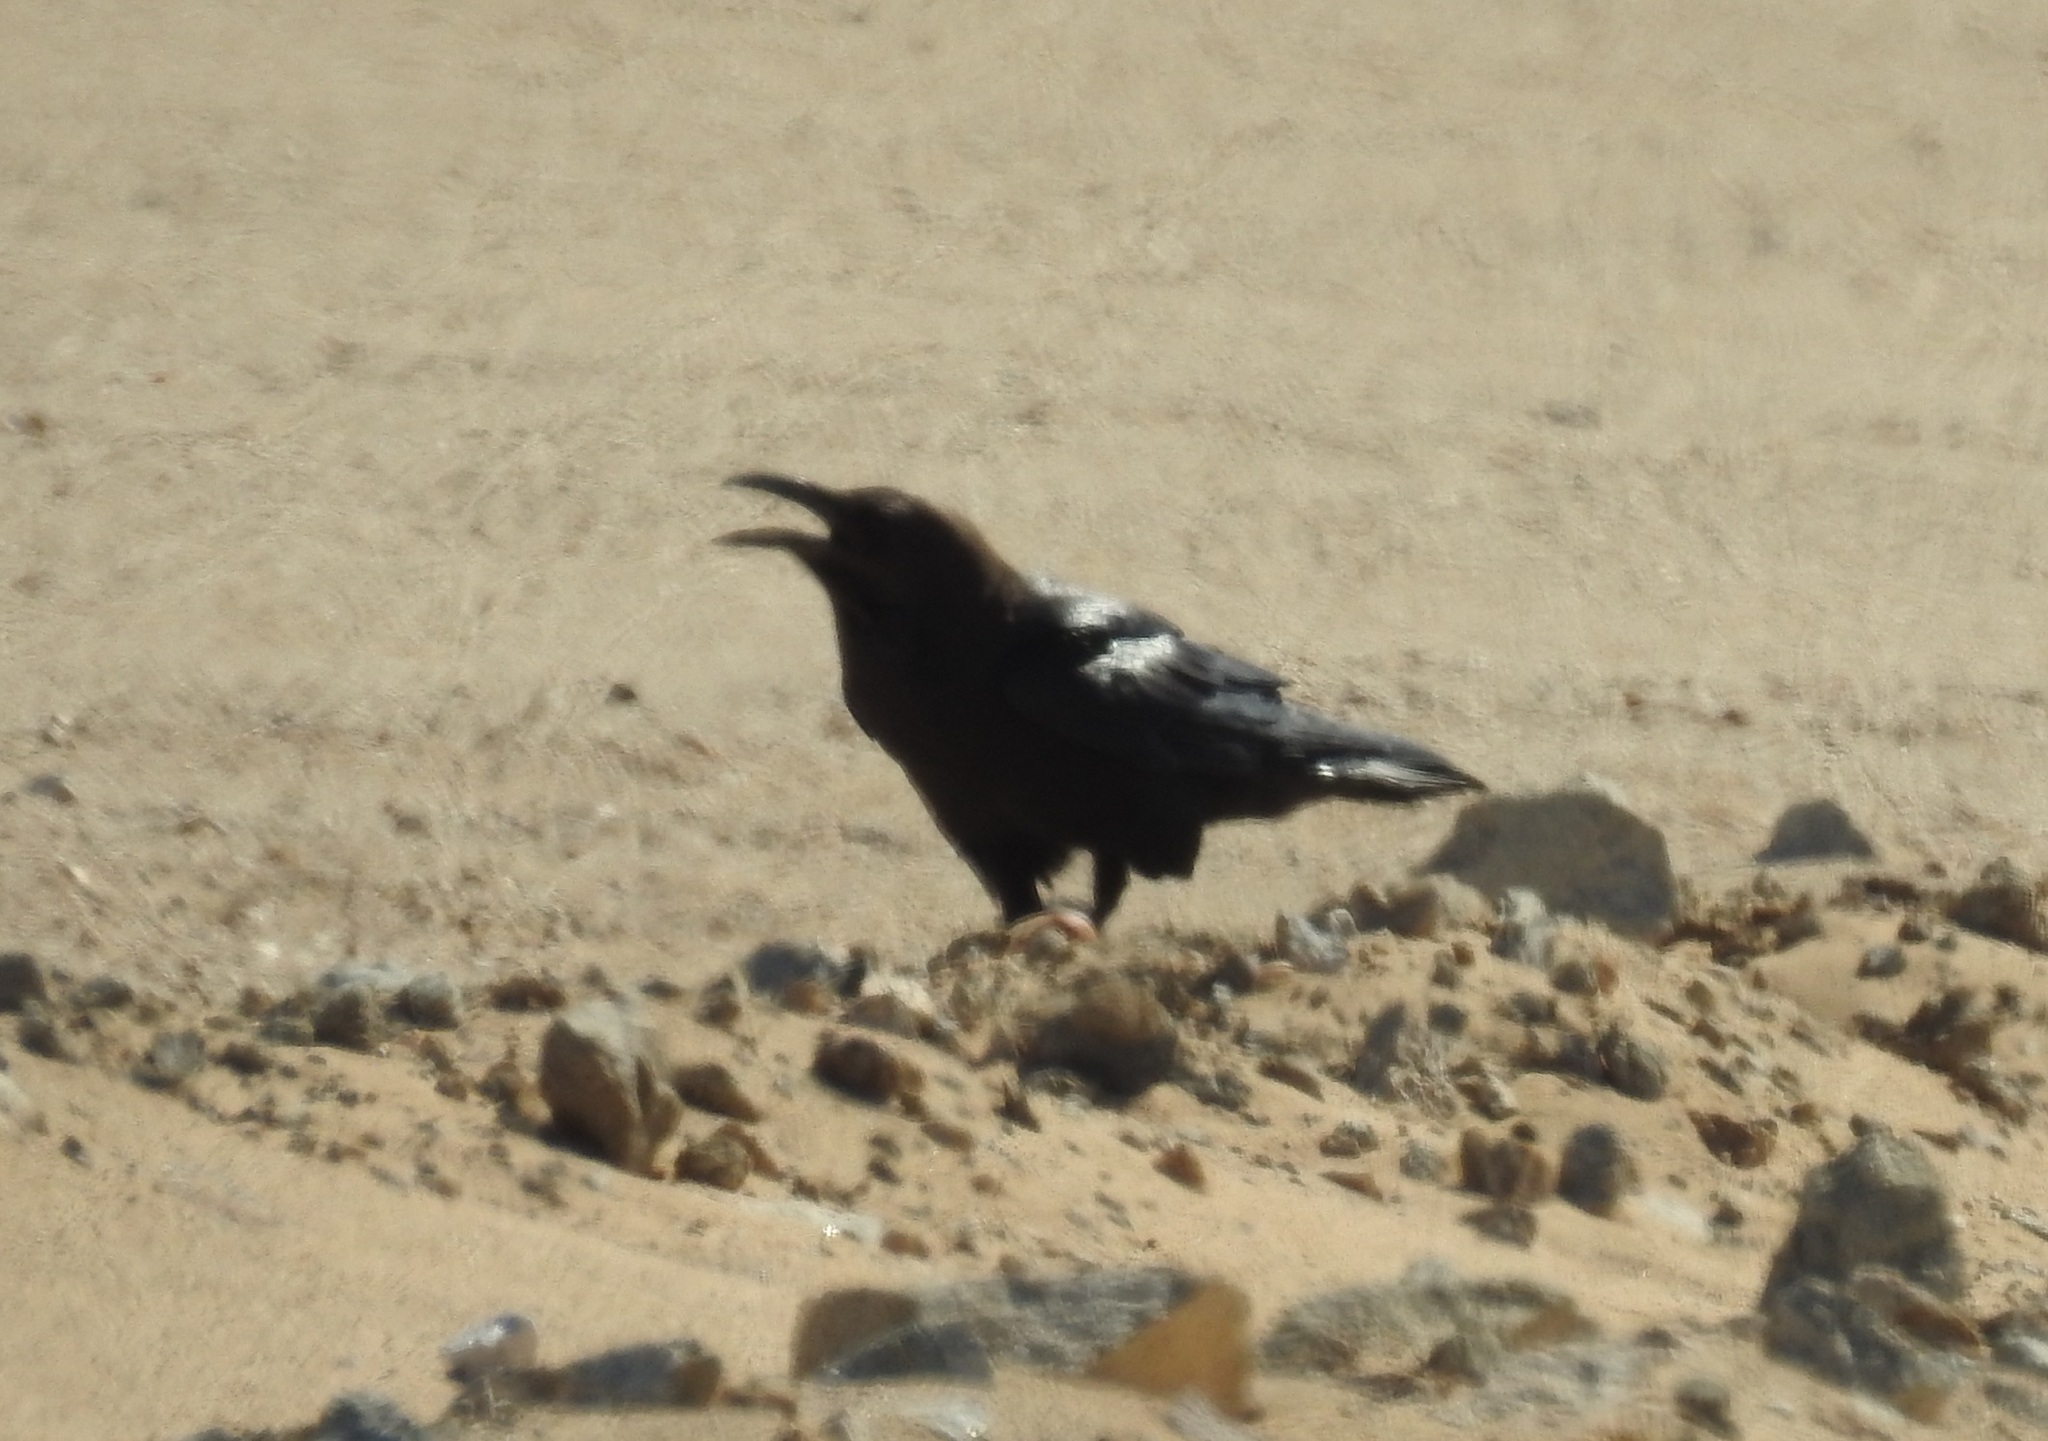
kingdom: Animalia
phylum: Chordata
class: Aves
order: Passeriformes
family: Corvidae
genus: Corvus
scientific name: Corvus ruficollis
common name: Brown-necked raven
